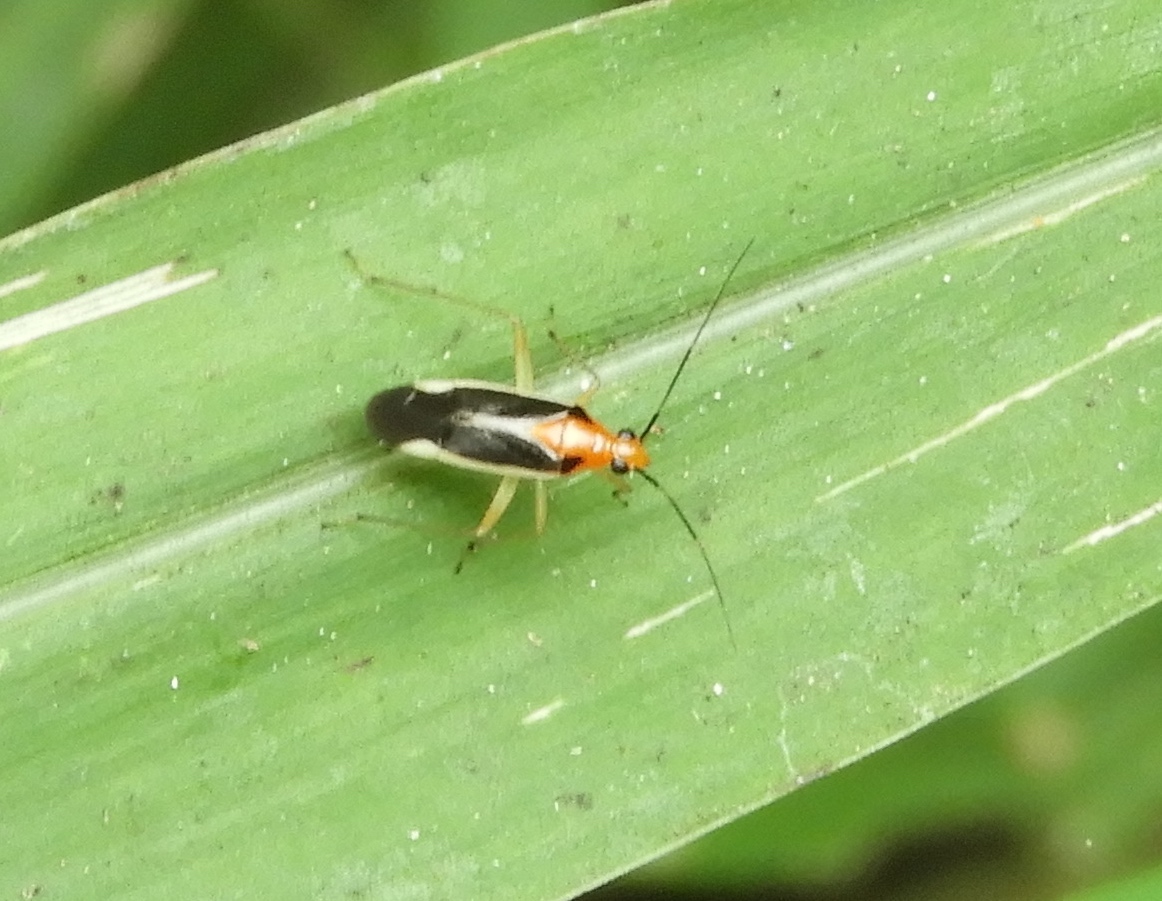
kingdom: Animalia
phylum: Arthropoda
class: Insecta
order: Hemiptera
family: Miridae
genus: Ganocapsus
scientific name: Ganocapsus filiformis
